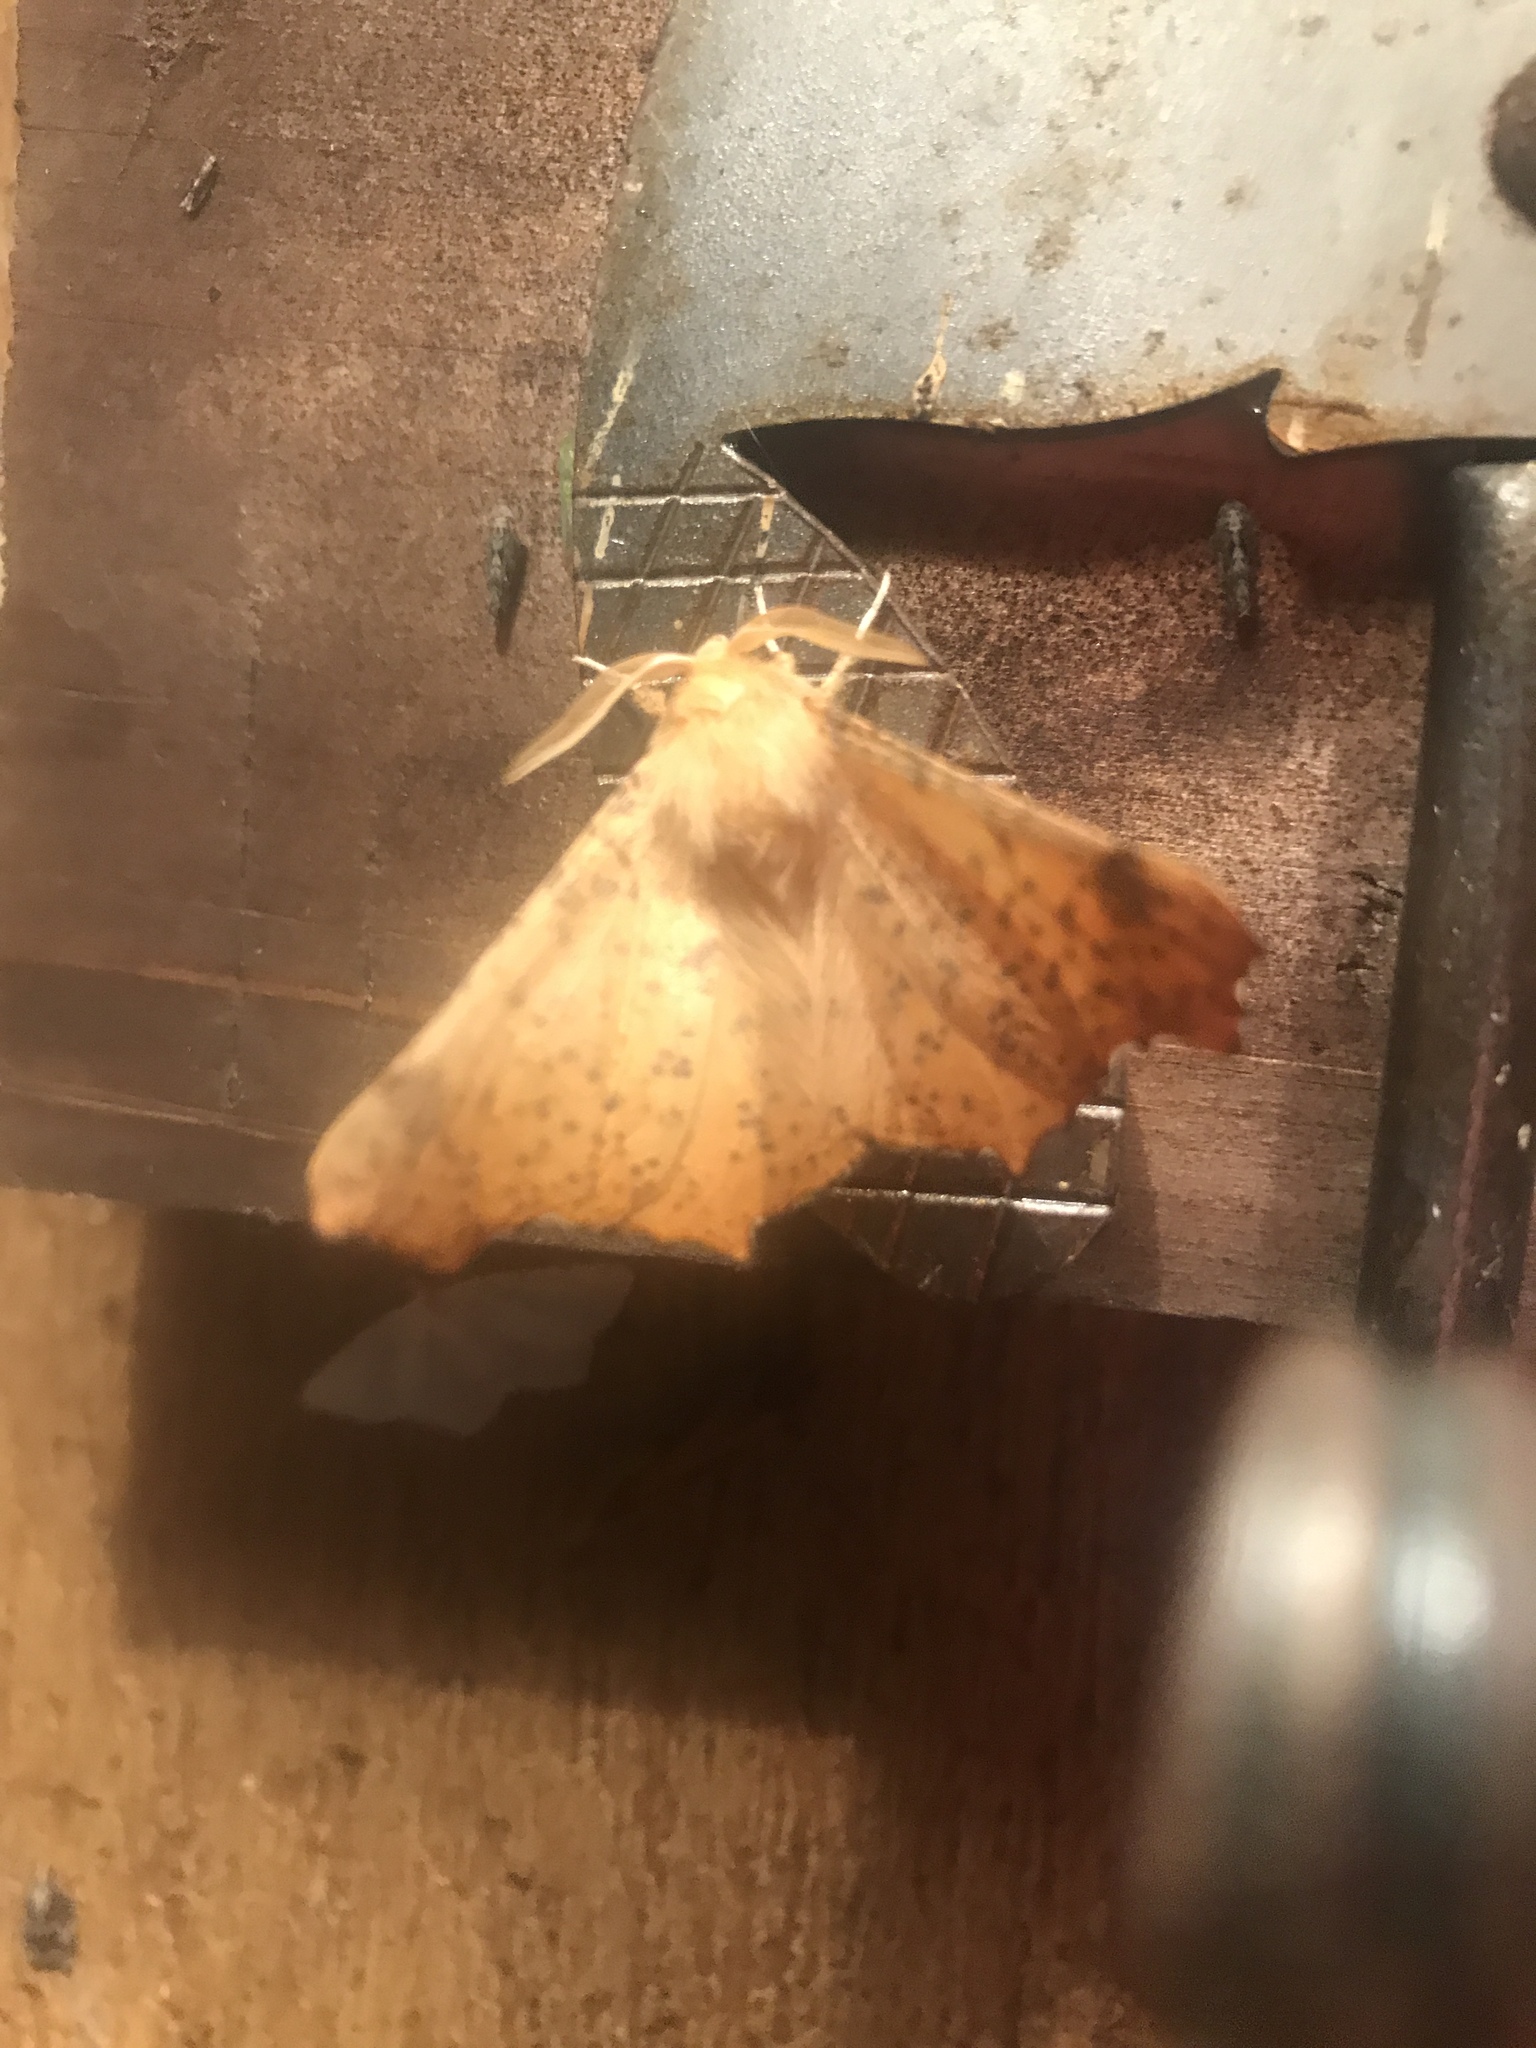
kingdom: Animalia
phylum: Arthropoda
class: Insecta
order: Lepidoptera
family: Geometridae
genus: Ennomos
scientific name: Ennomos magnaria
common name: Maple spanworm
